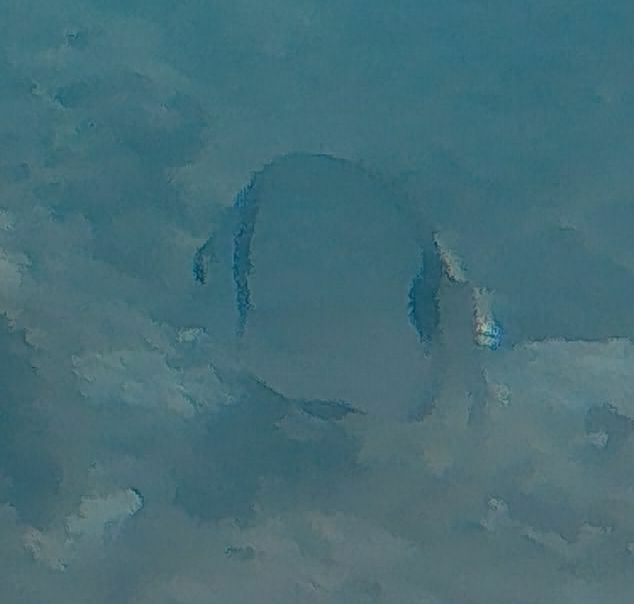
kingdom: Animalia
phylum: Chordata
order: Perciformes
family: Sparidae
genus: Diplodus
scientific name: Diplodus vulgaris
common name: Common two-banded seabream
